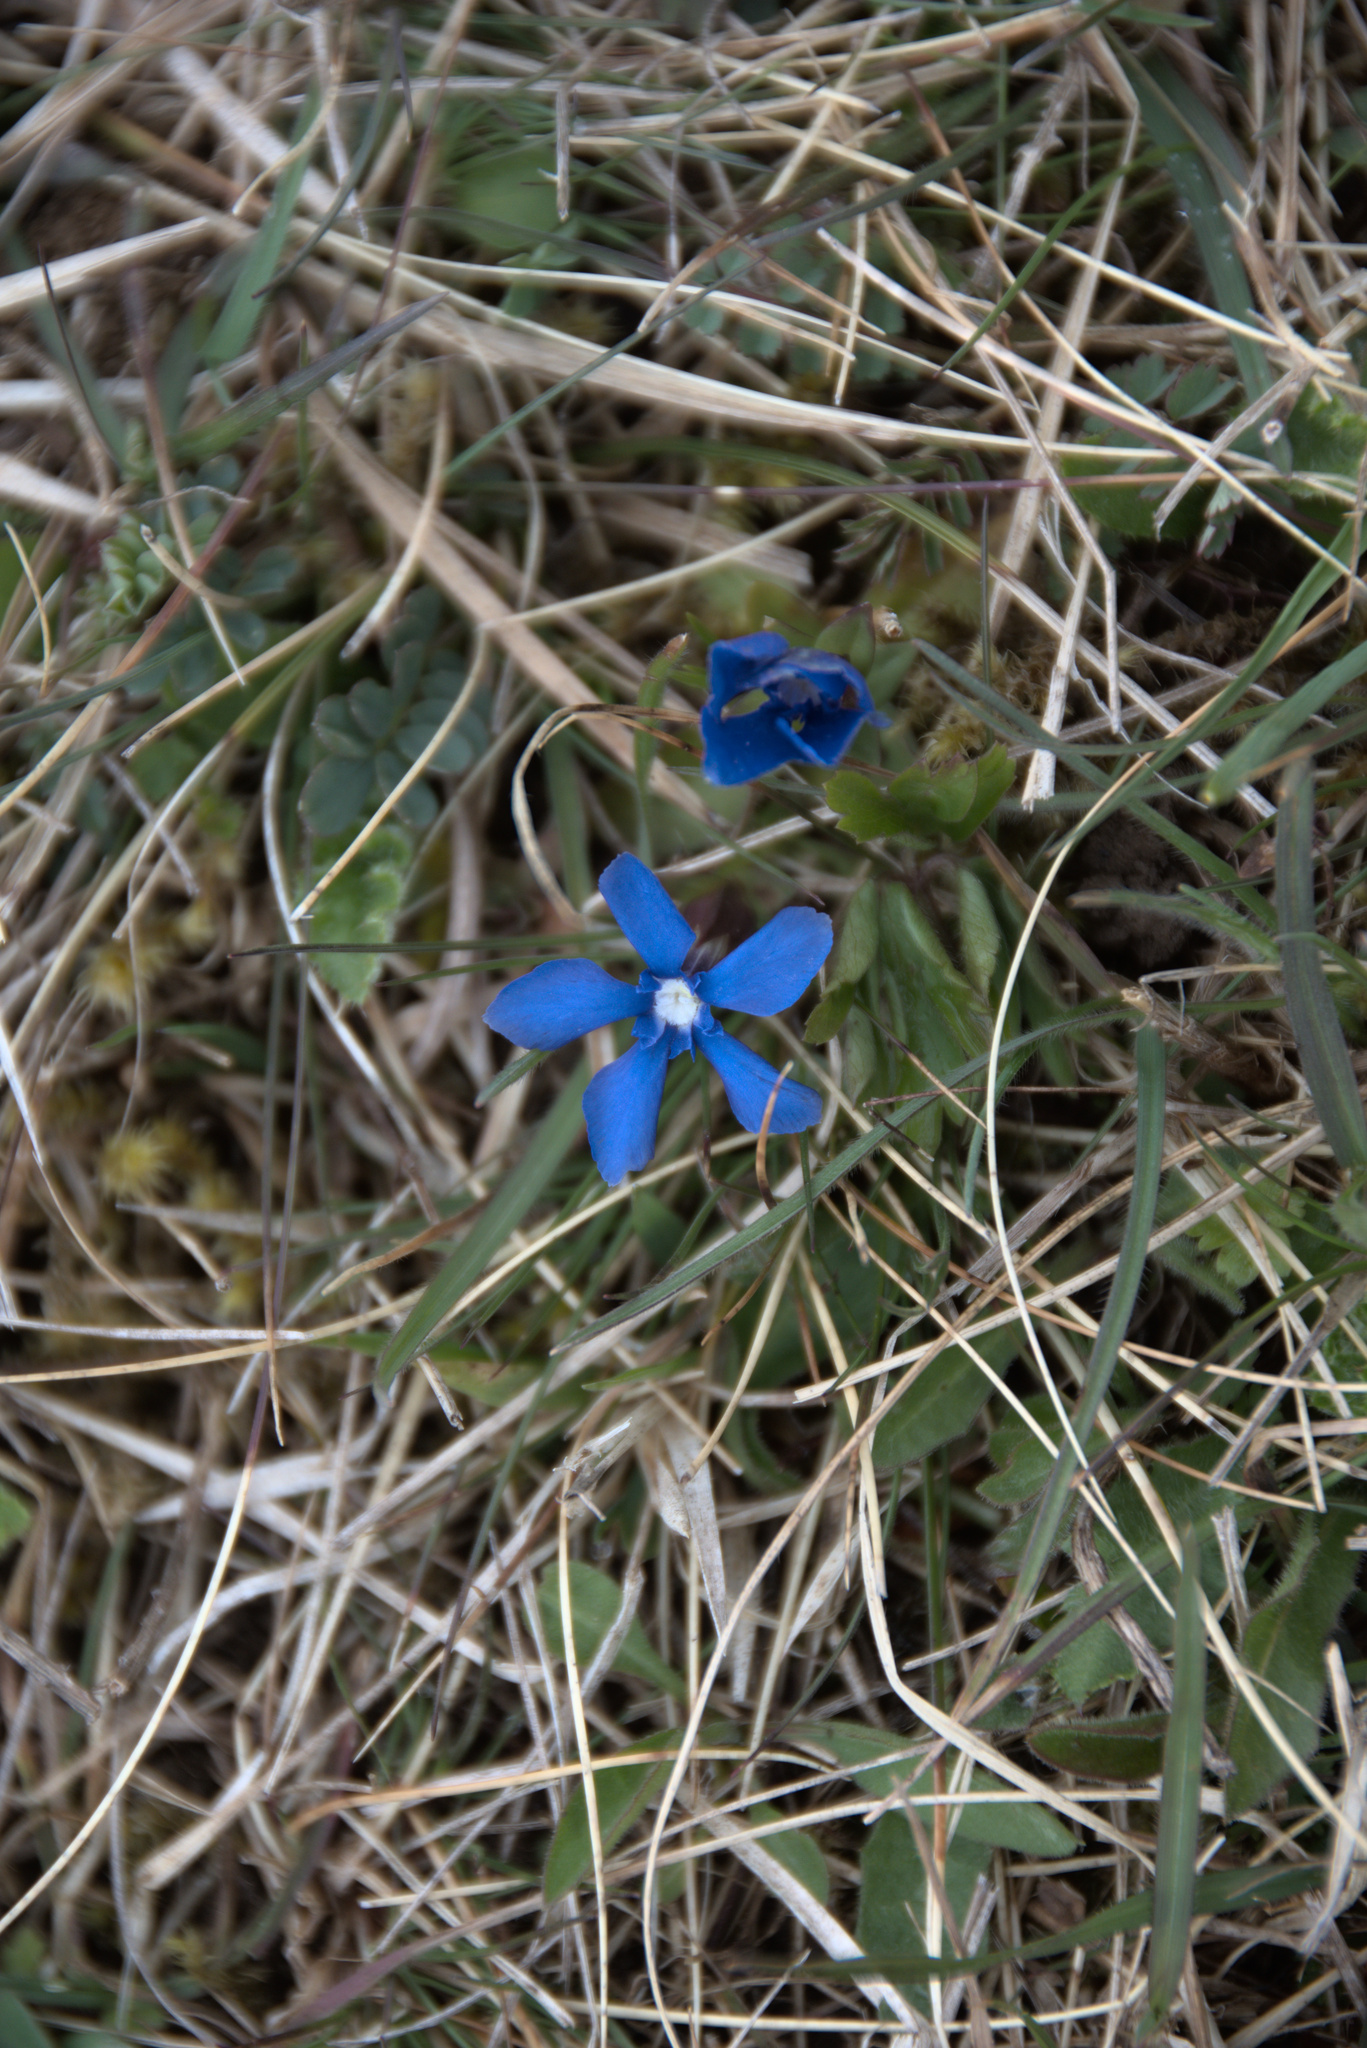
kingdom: Plantae
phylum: Tracheophyta
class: Magnoliopsida
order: Gentianales
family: Gentianaceae
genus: Gentiana
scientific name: Gentiana verna
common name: Spring gentian
